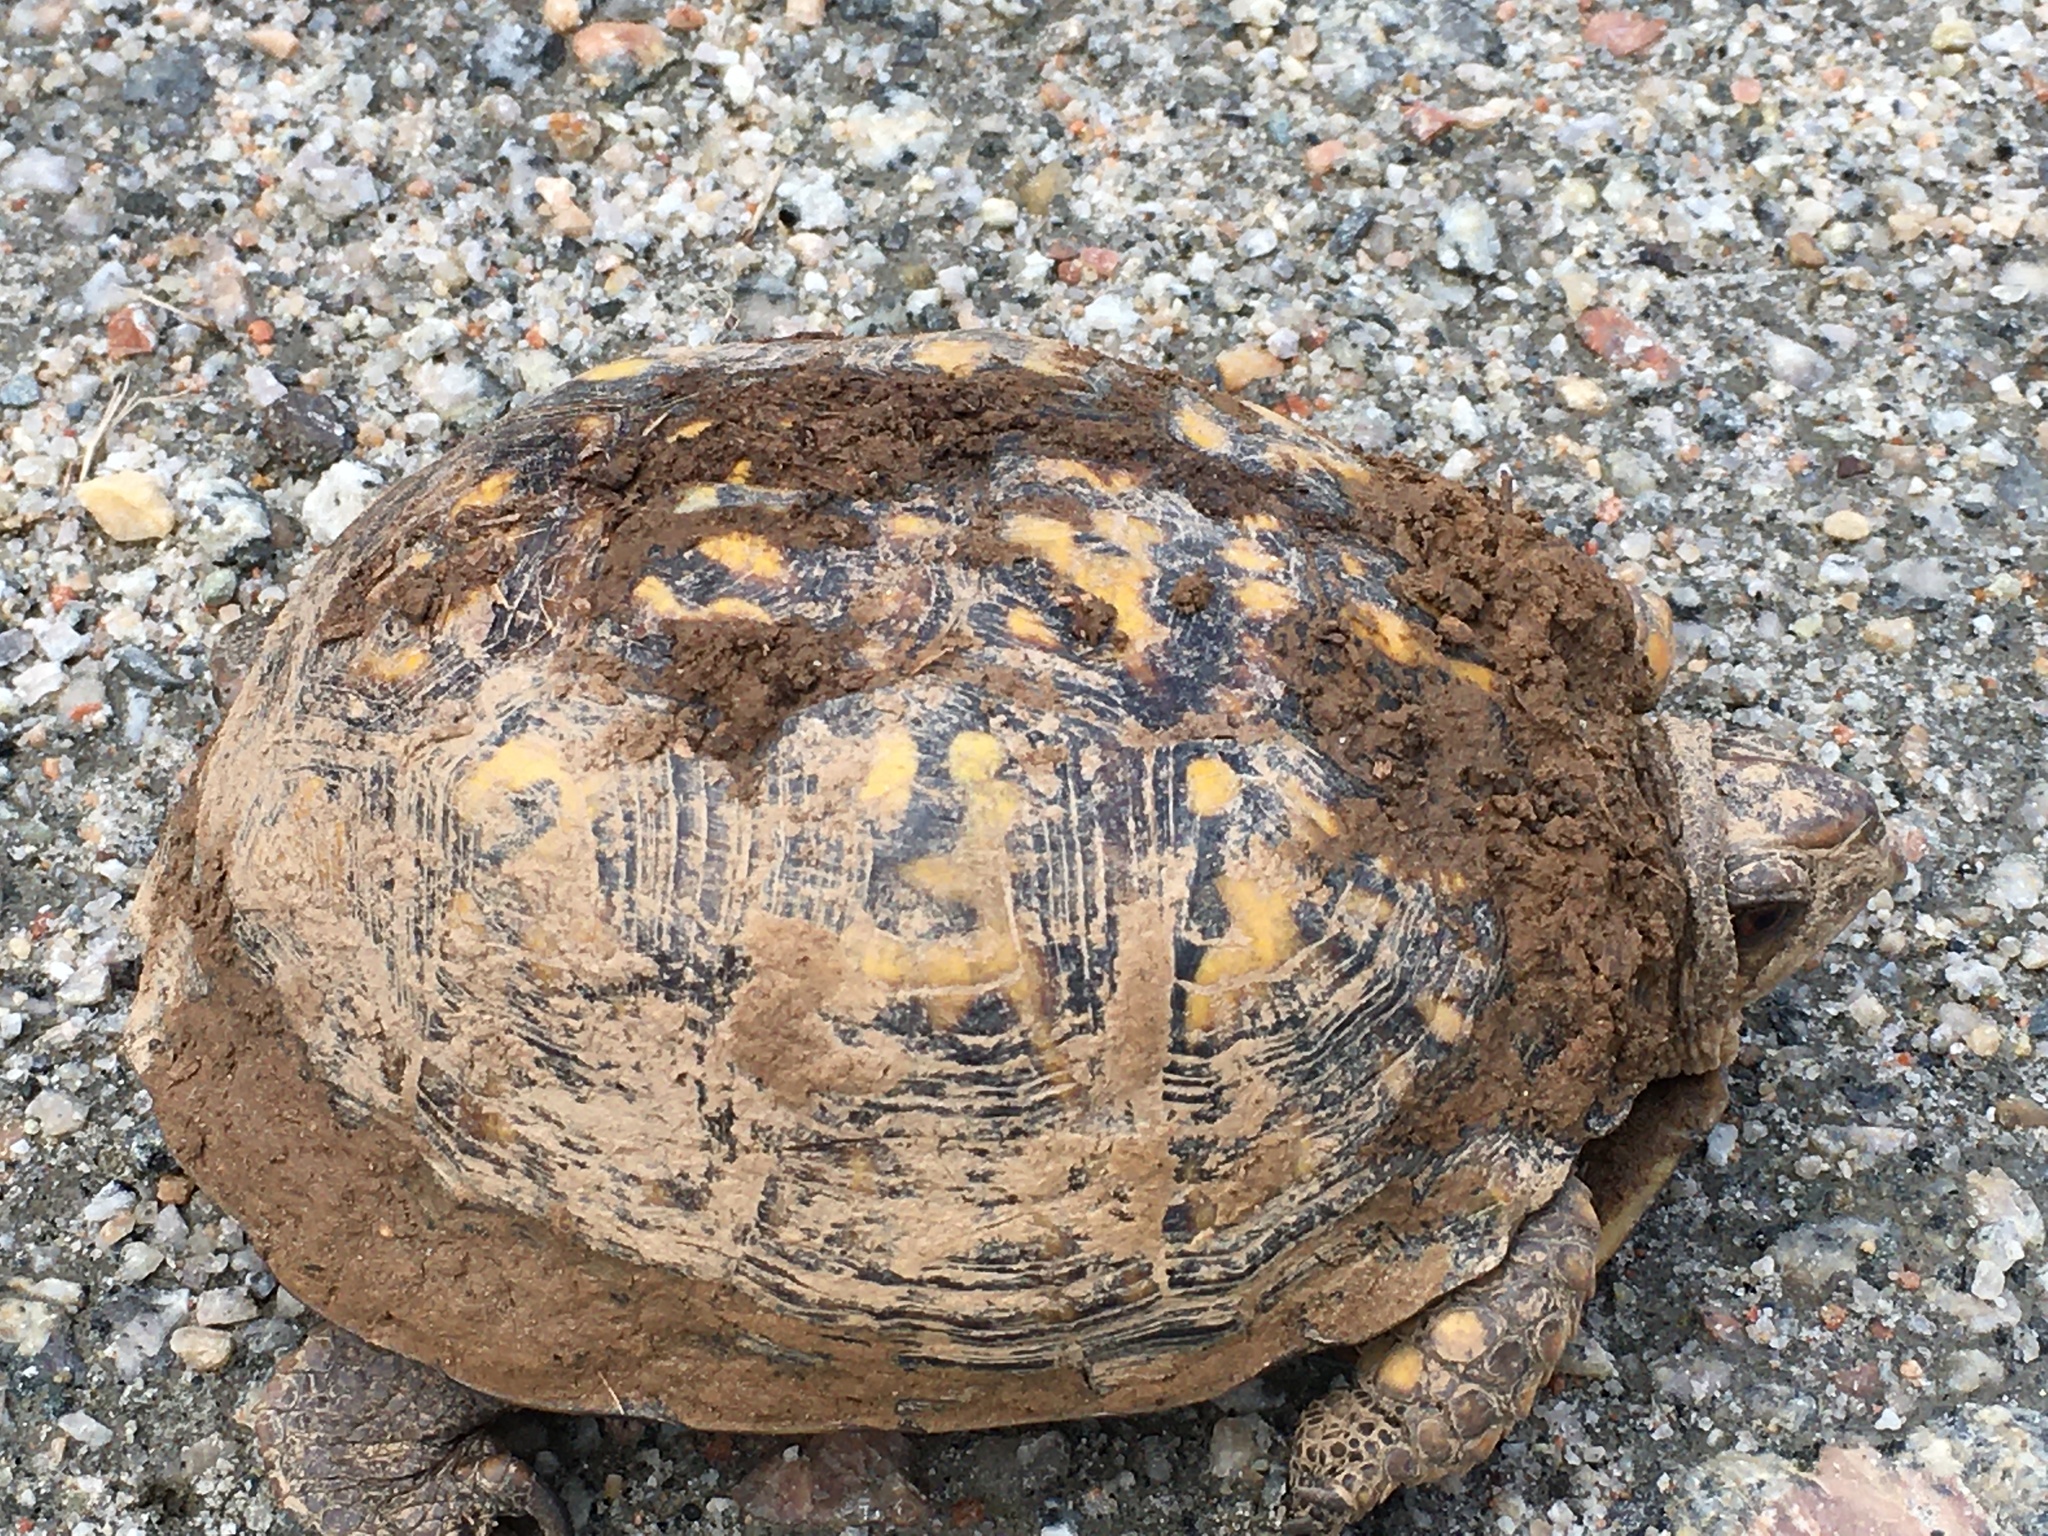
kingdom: Animalia
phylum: Chordata
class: Testudines
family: Emydidae
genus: Terrapene
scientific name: Terrapene carolina
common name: Common box turtle
